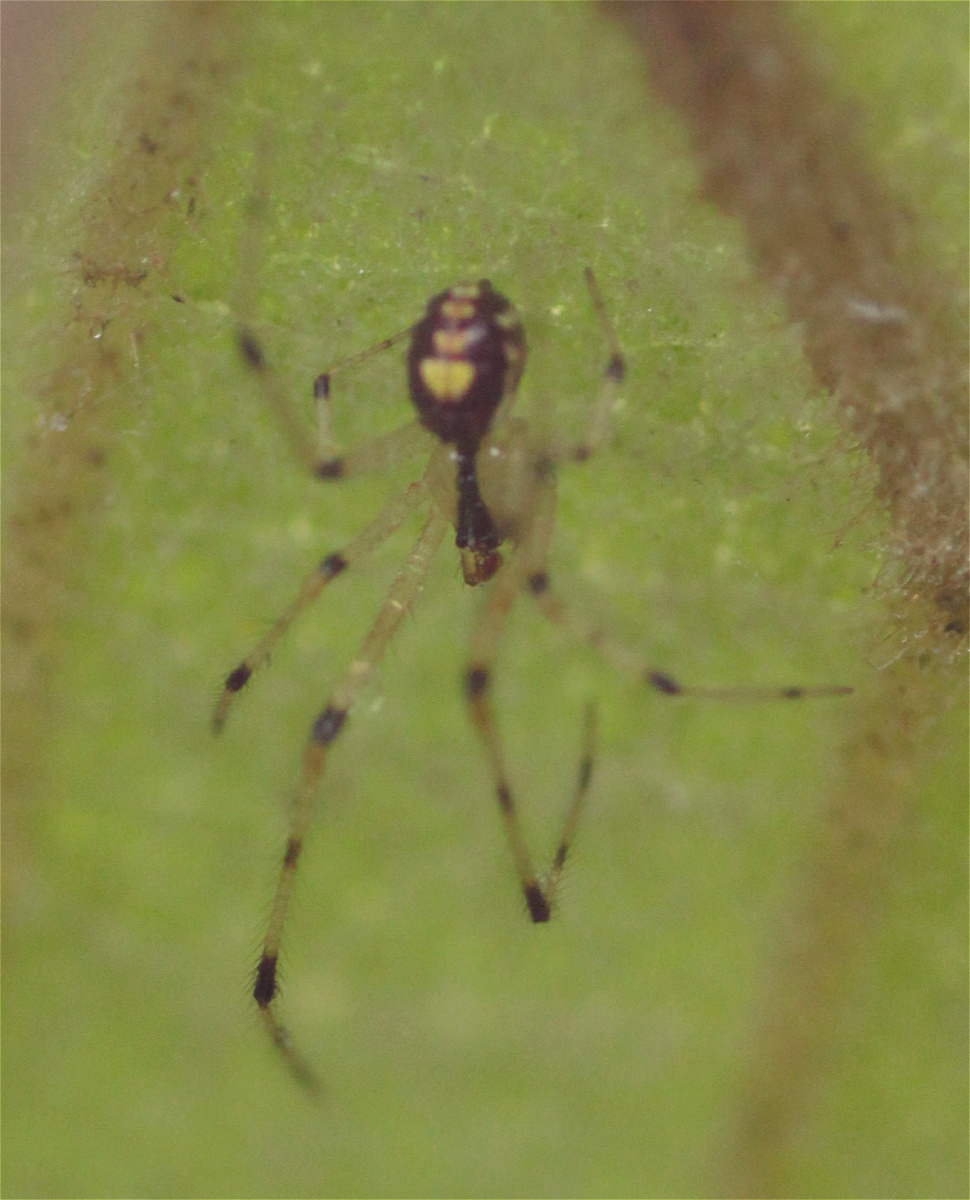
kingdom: Animalia
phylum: Arthropoda
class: Arachnida
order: Araneae
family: Theridiidae
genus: Theridion
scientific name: Theridion frizzellorum
